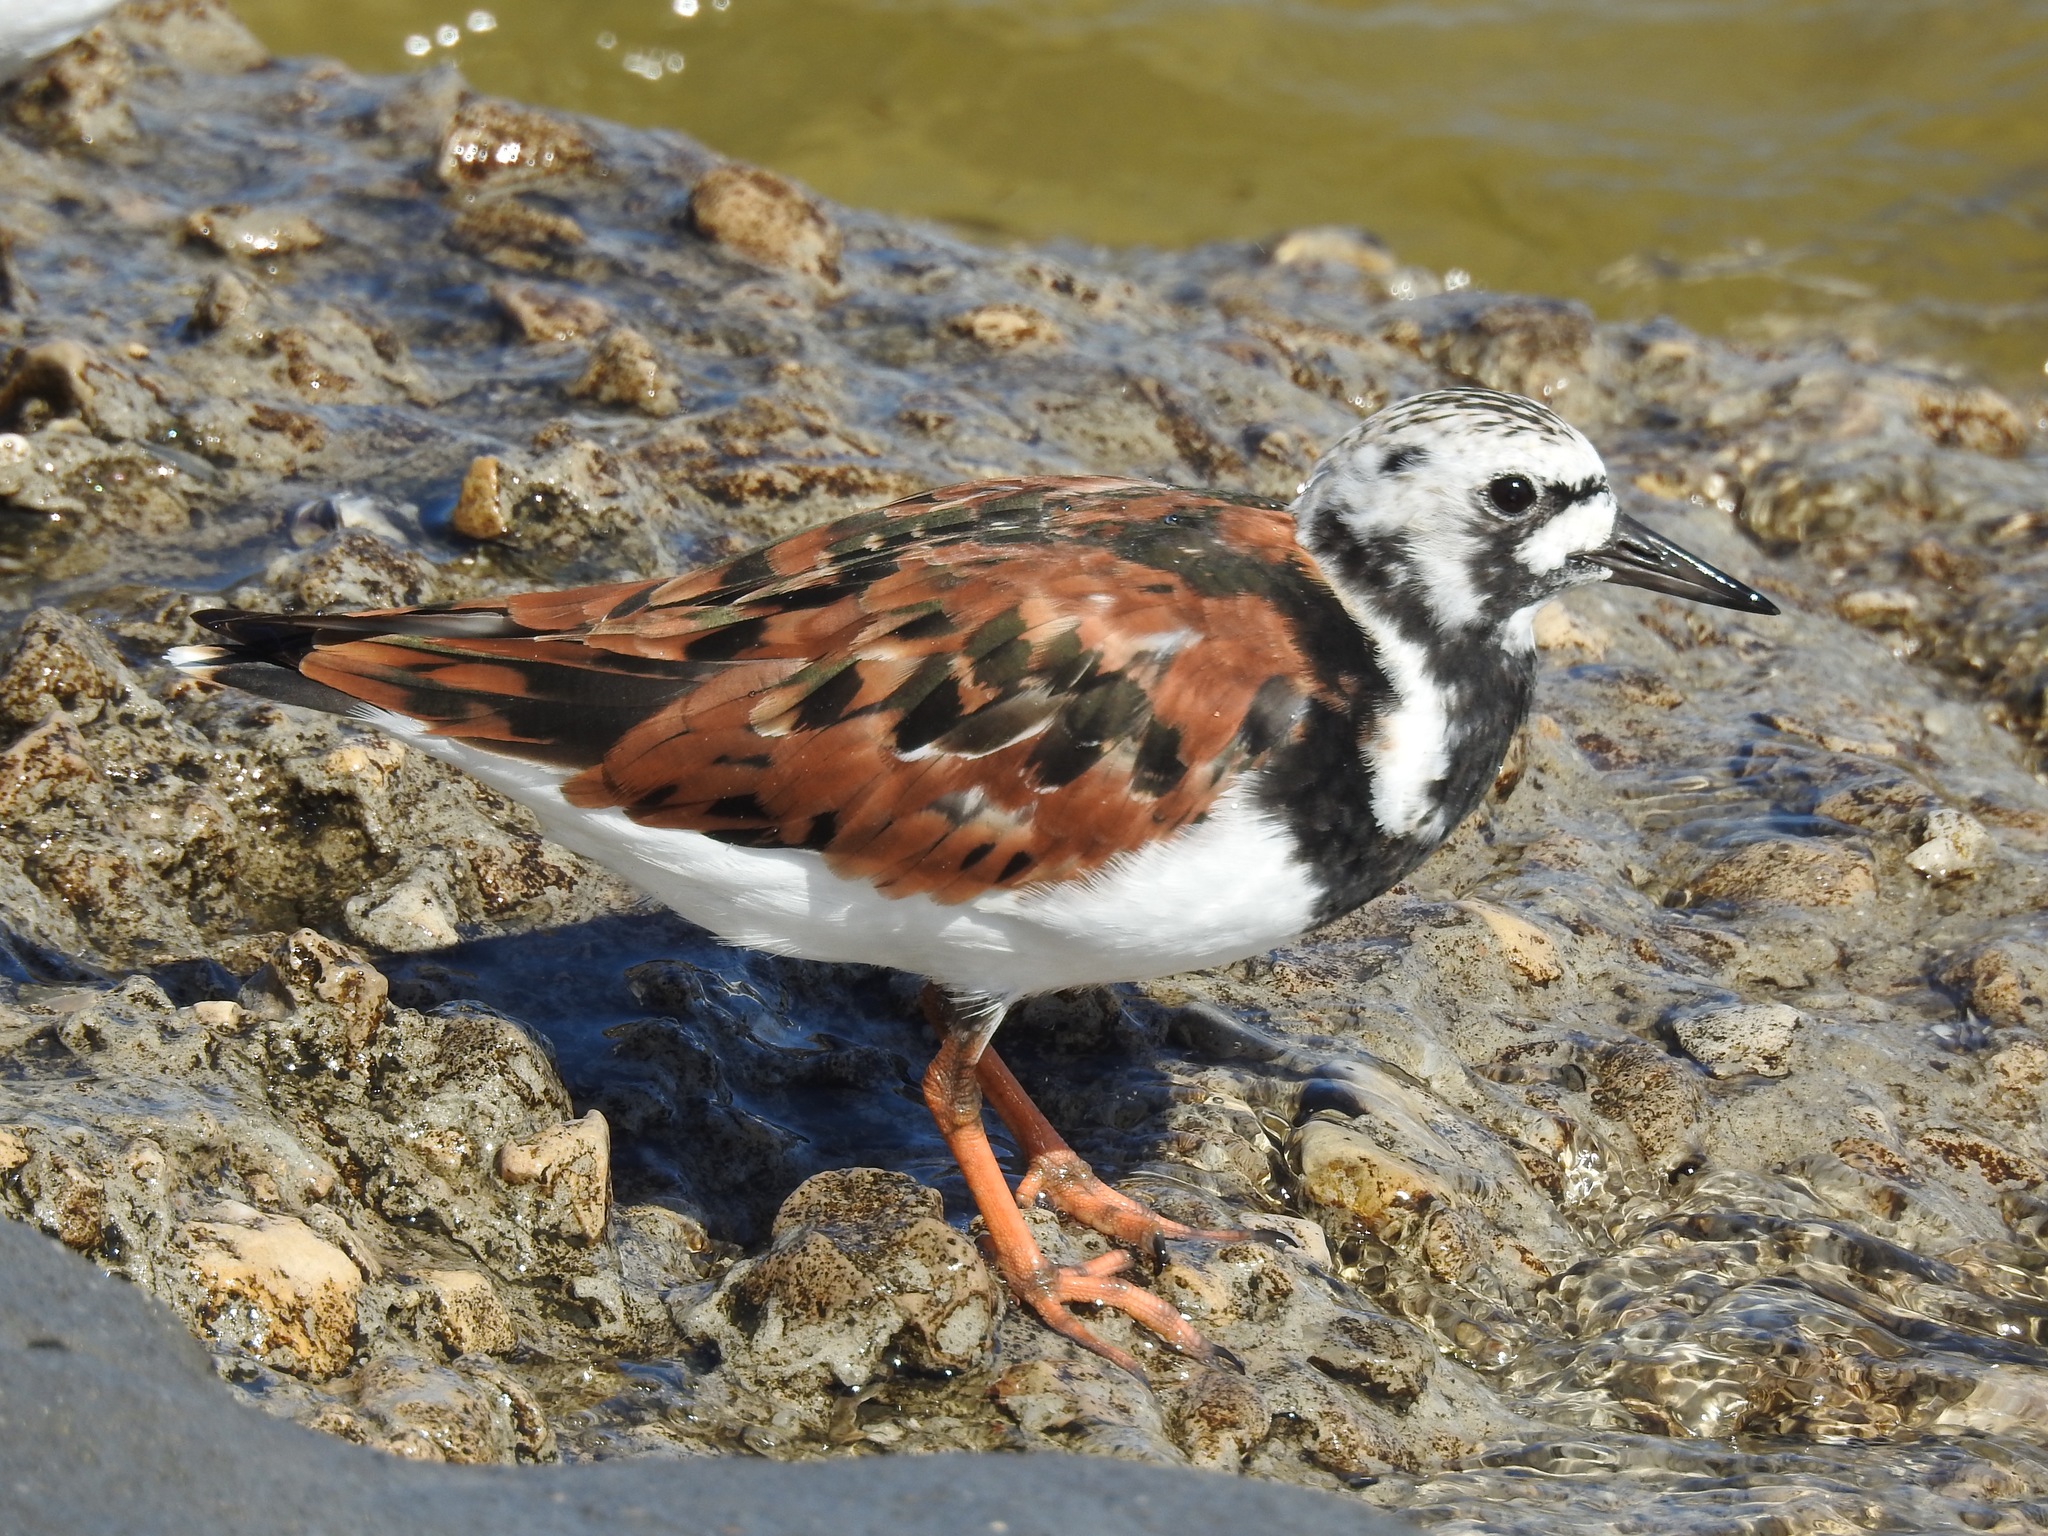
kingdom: Animalia
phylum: Chordata
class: Aves
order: Charadriiformes
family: Scolopacidae
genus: Arenaria
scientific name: Arenaria interpres
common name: Ruddy turnstone
